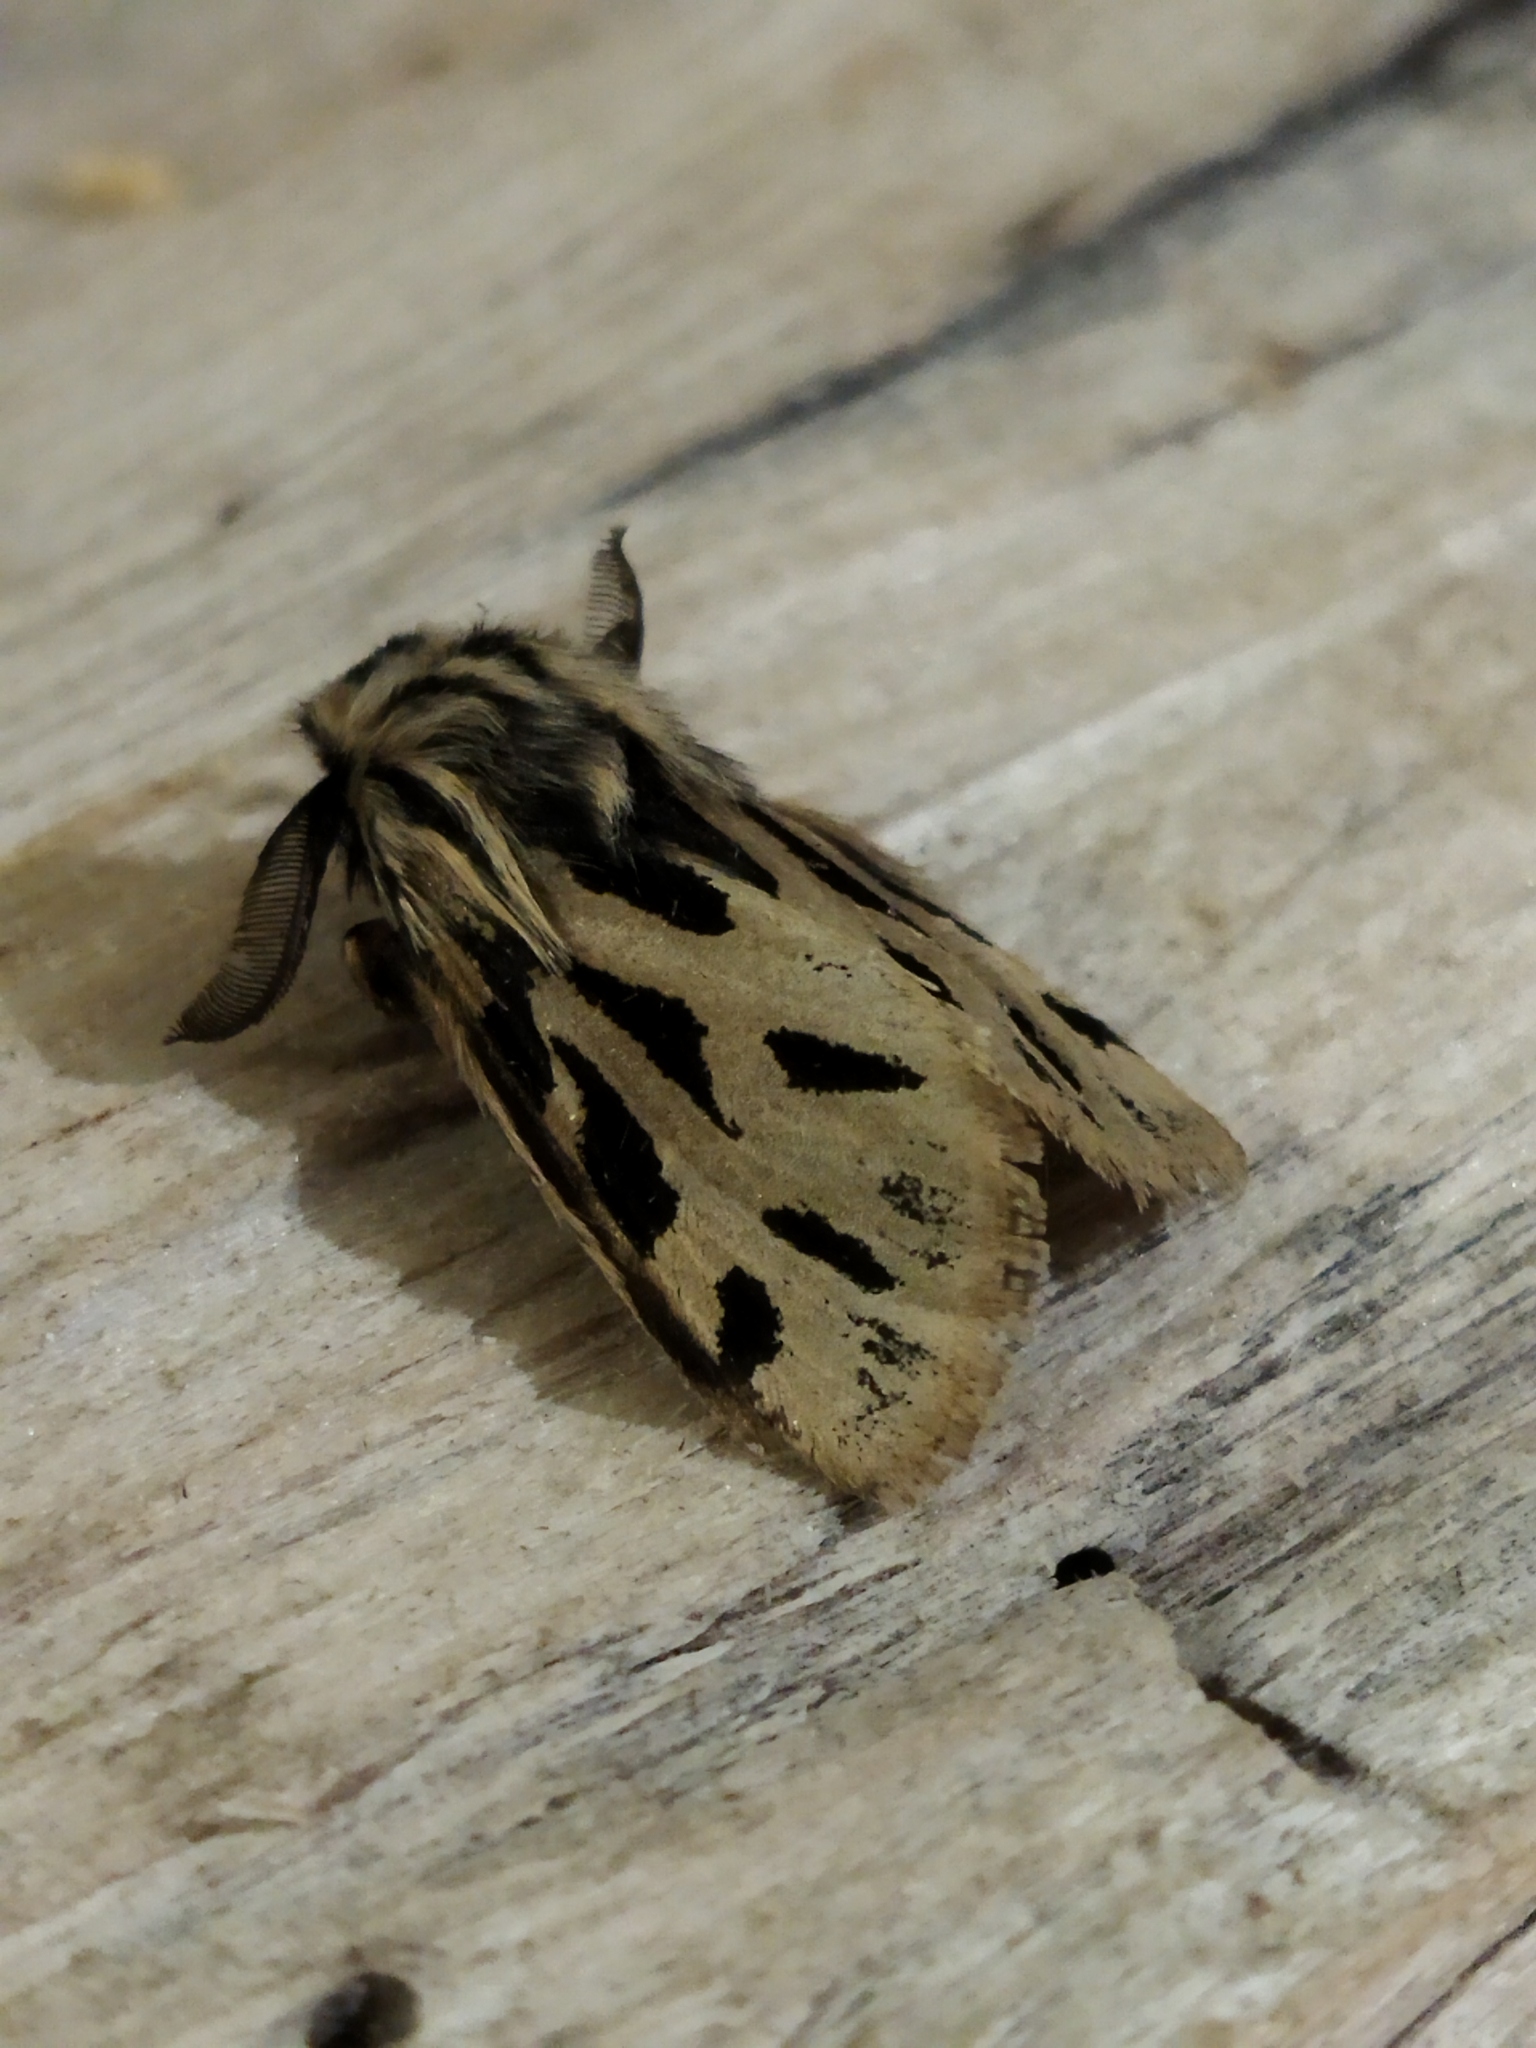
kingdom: Animalia
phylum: Arthropoda
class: Insecta
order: Lepidoptera
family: Erebidae
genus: Ocnogyna
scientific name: Ocnogyna parasita
